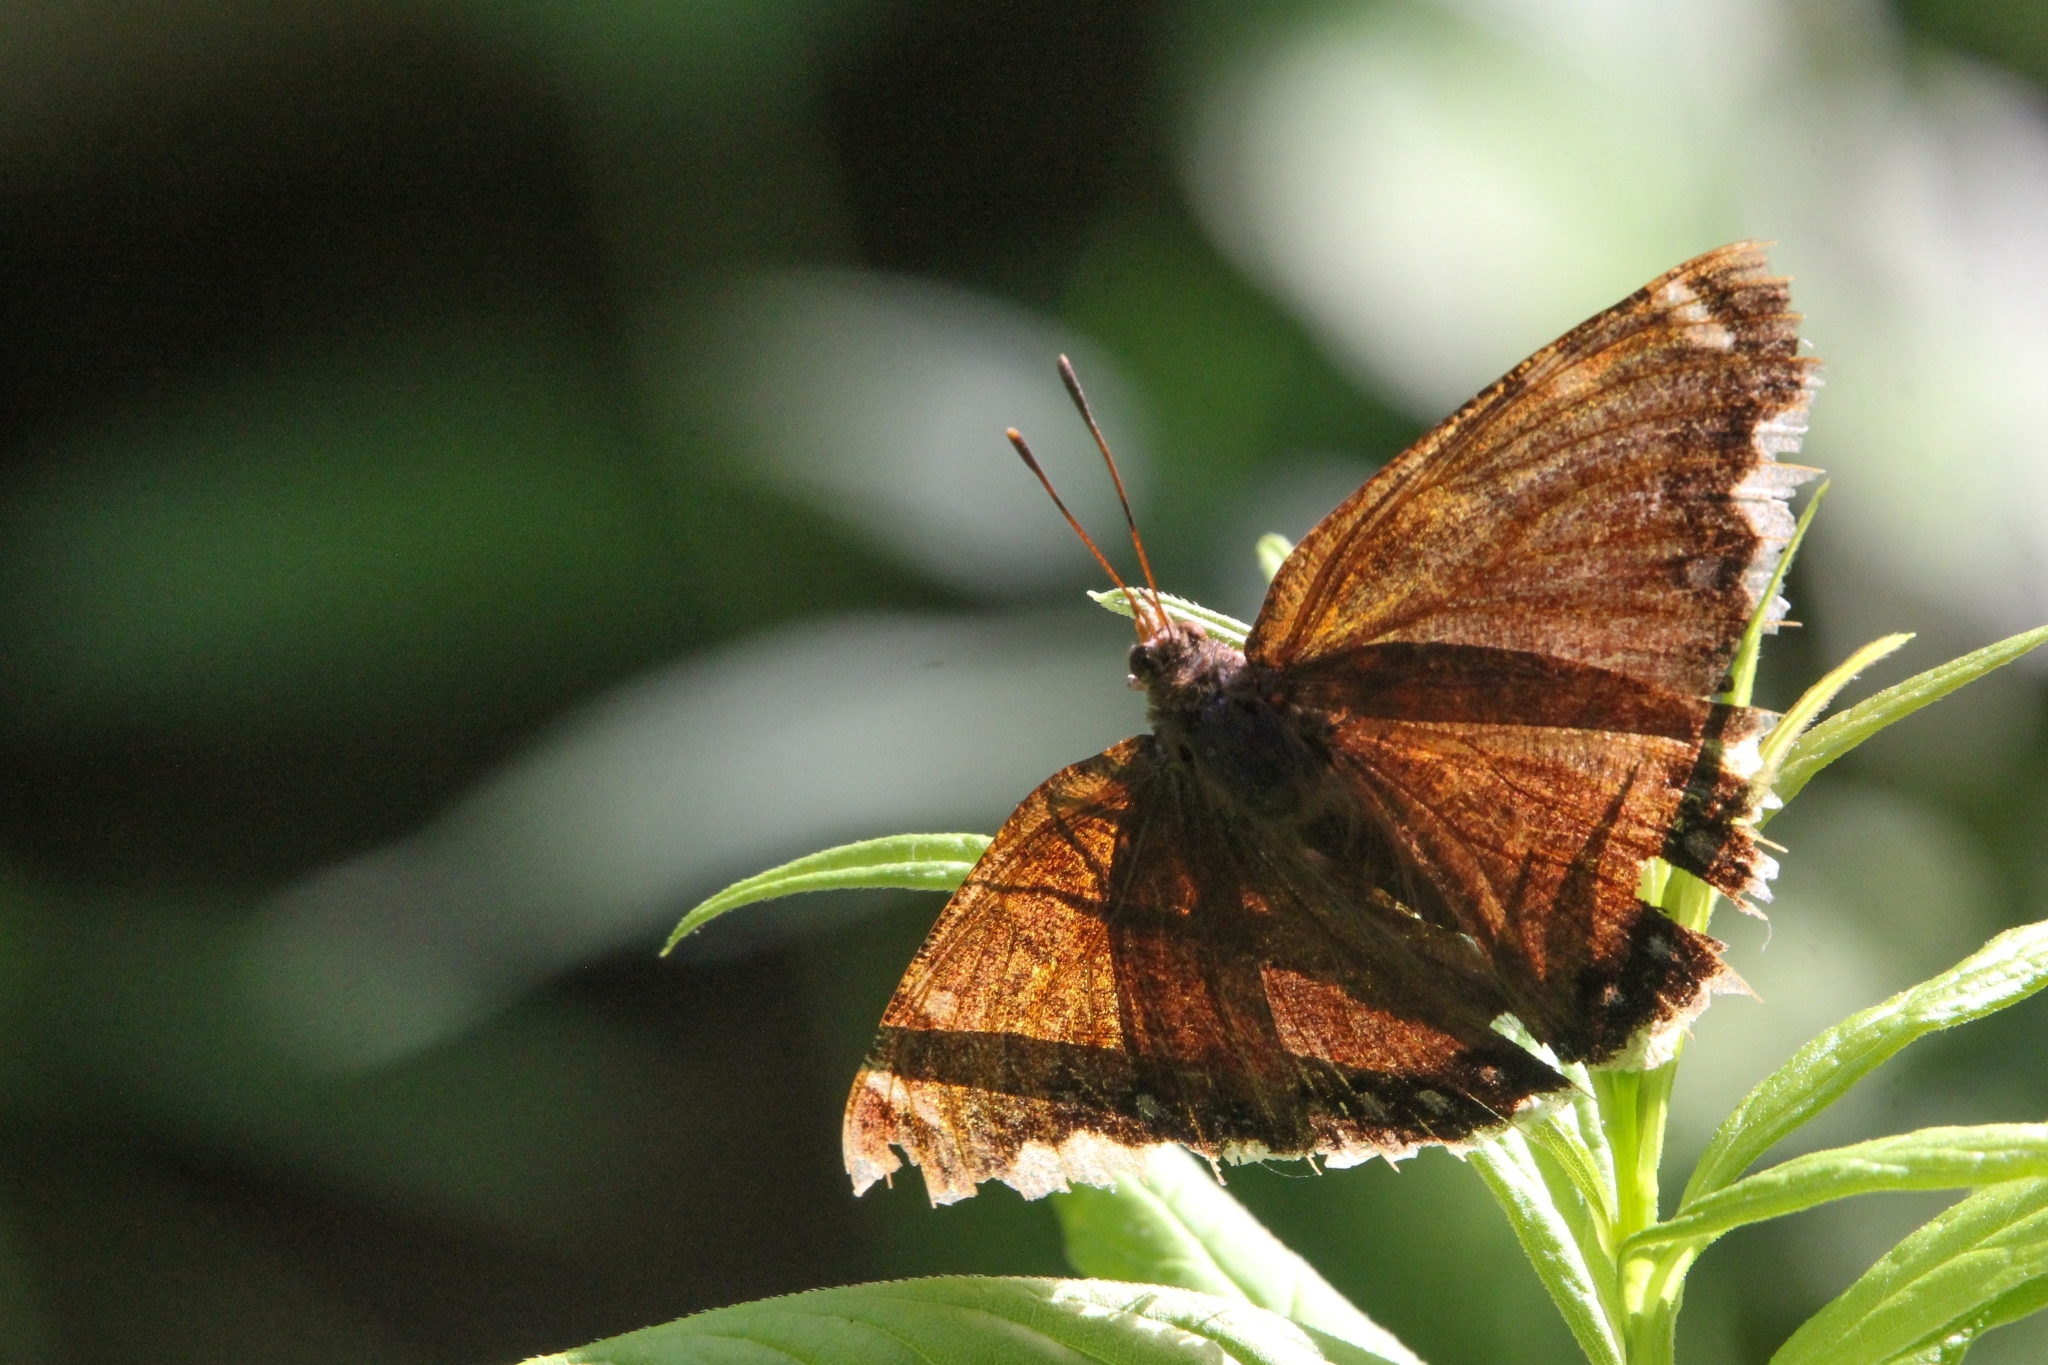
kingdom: Animalia
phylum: Arthropoda
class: Insecta
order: Lepidoptera
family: Nymphalidae
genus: Nymphalis
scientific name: Nymphalis antiopa
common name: Camberwell beauty
